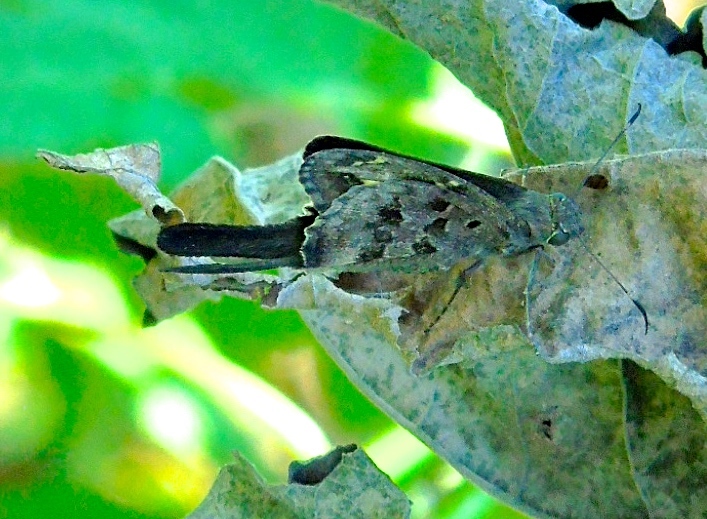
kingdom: Animalia
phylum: Arthropoda
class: Insecta
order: Lepidoptera
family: Hesperiidae
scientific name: Hesperiidae
